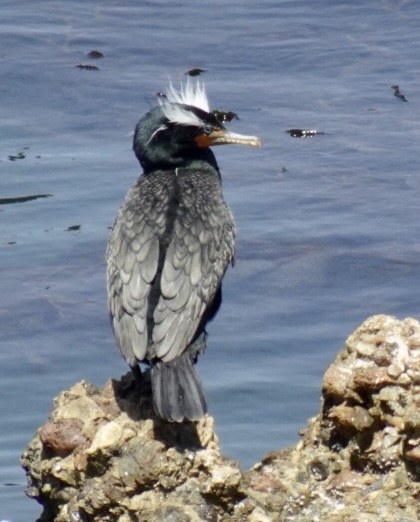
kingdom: Animalia
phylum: Chordata
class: Aves
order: Suliformes
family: Phalacrocoracidae
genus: Phalacrocorax
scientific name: Phalacrocorax auritus
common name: Double-crested cormorant
